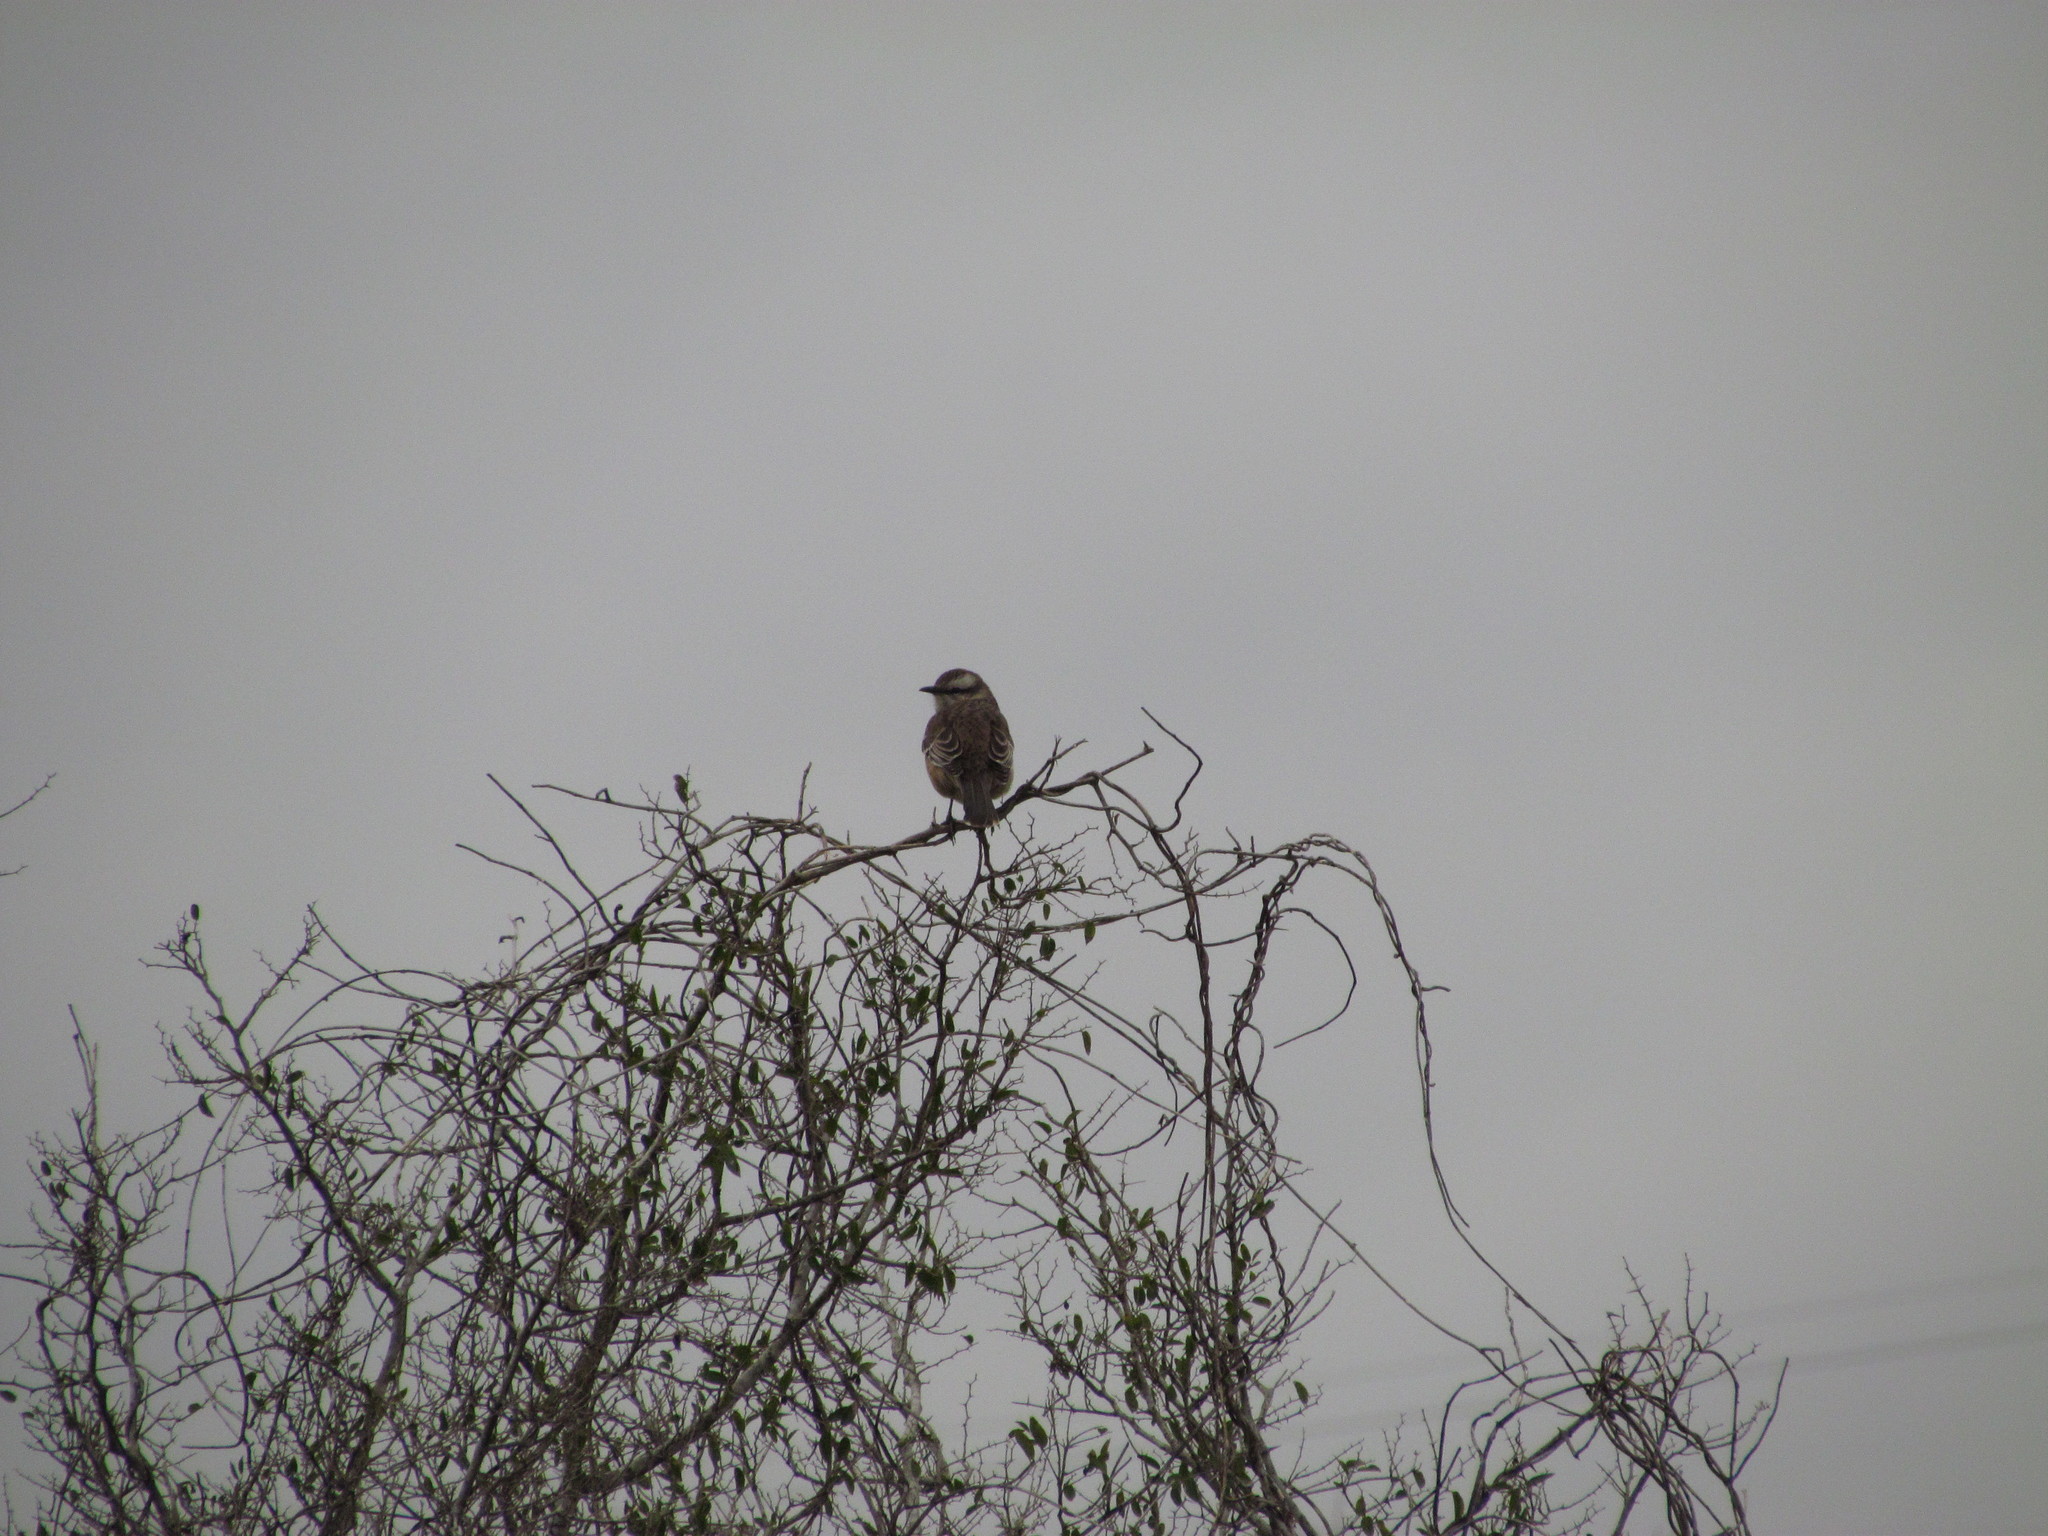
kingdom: Animalia
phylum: Chordata
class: Aves
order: Passeriformes
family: Mimidae
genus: Mimus
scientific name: Mimus saturninus
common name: Chalk-browed mockingbird
